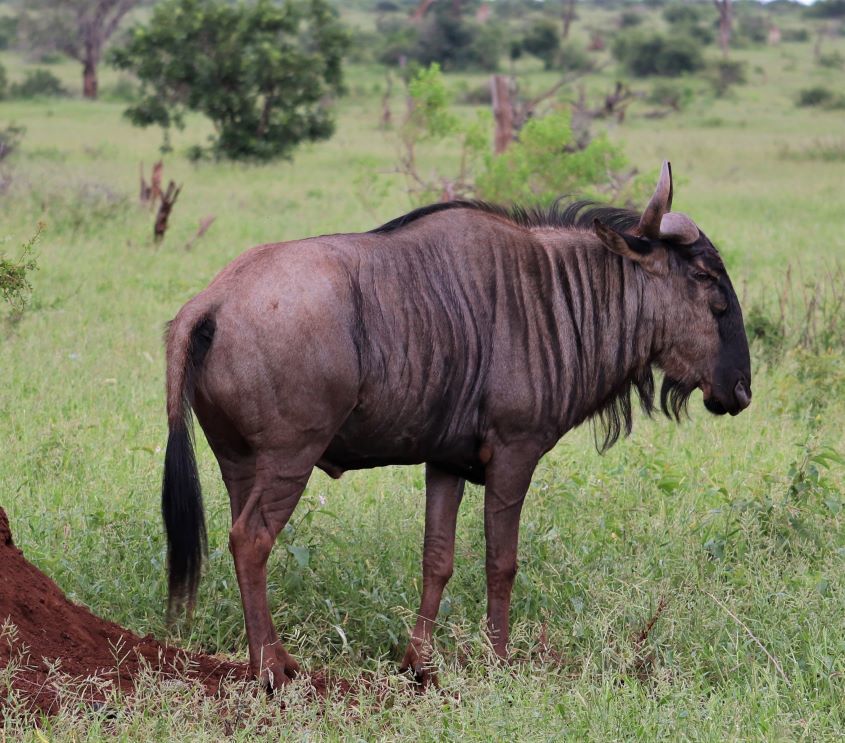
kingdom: Animalia
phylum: Chordata
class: Mammalia
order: Artiodactyla
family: Bovidae
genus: Connochaetes
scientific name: Connochaetes taurinus
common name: Blue wildebeest
